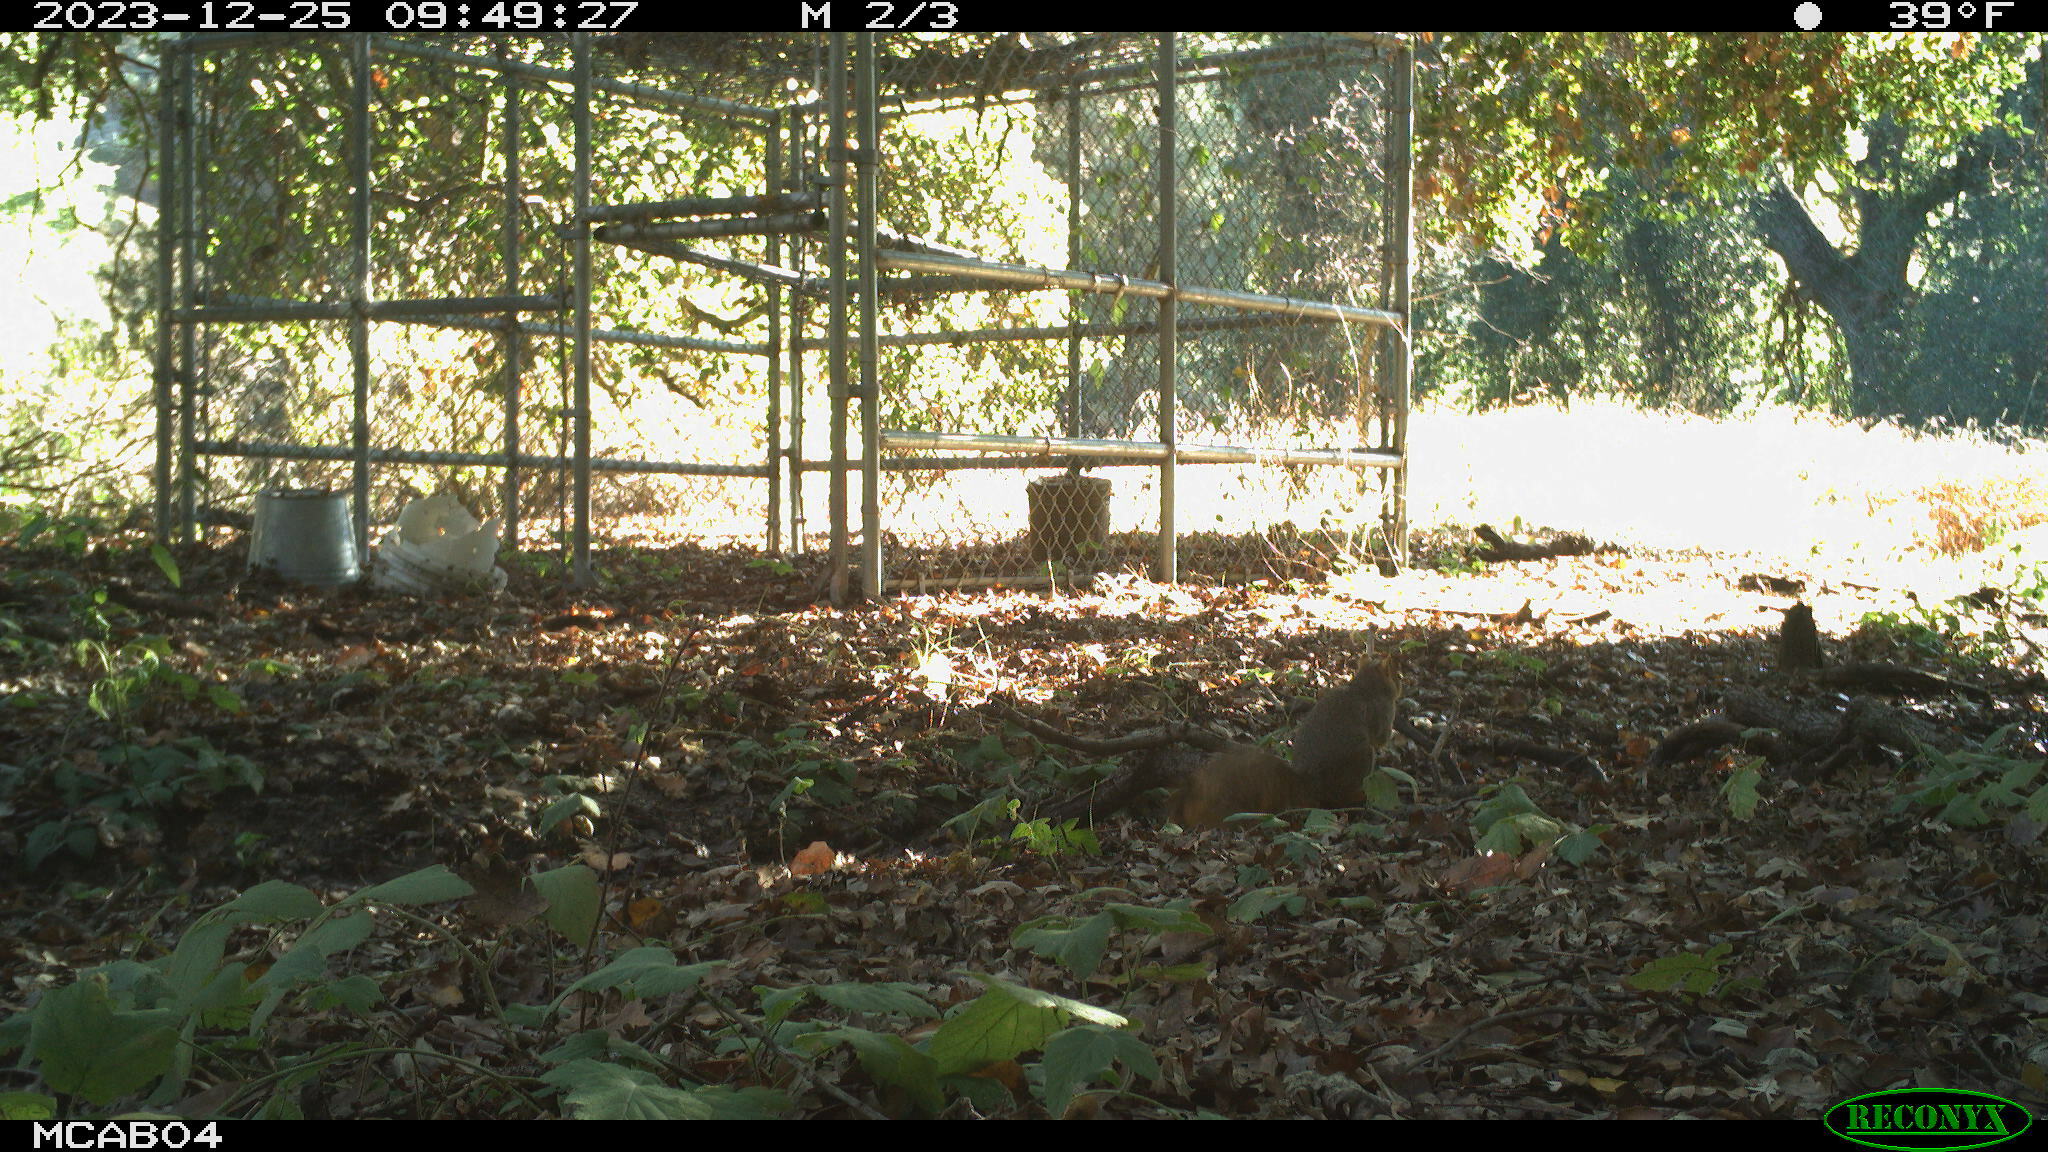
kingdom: Animalia
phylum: Chordata
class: Mammalia
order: Rodentia
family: Sciuridae
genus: Sciurus
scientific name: Sciurus niger
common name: Fox squirrel
